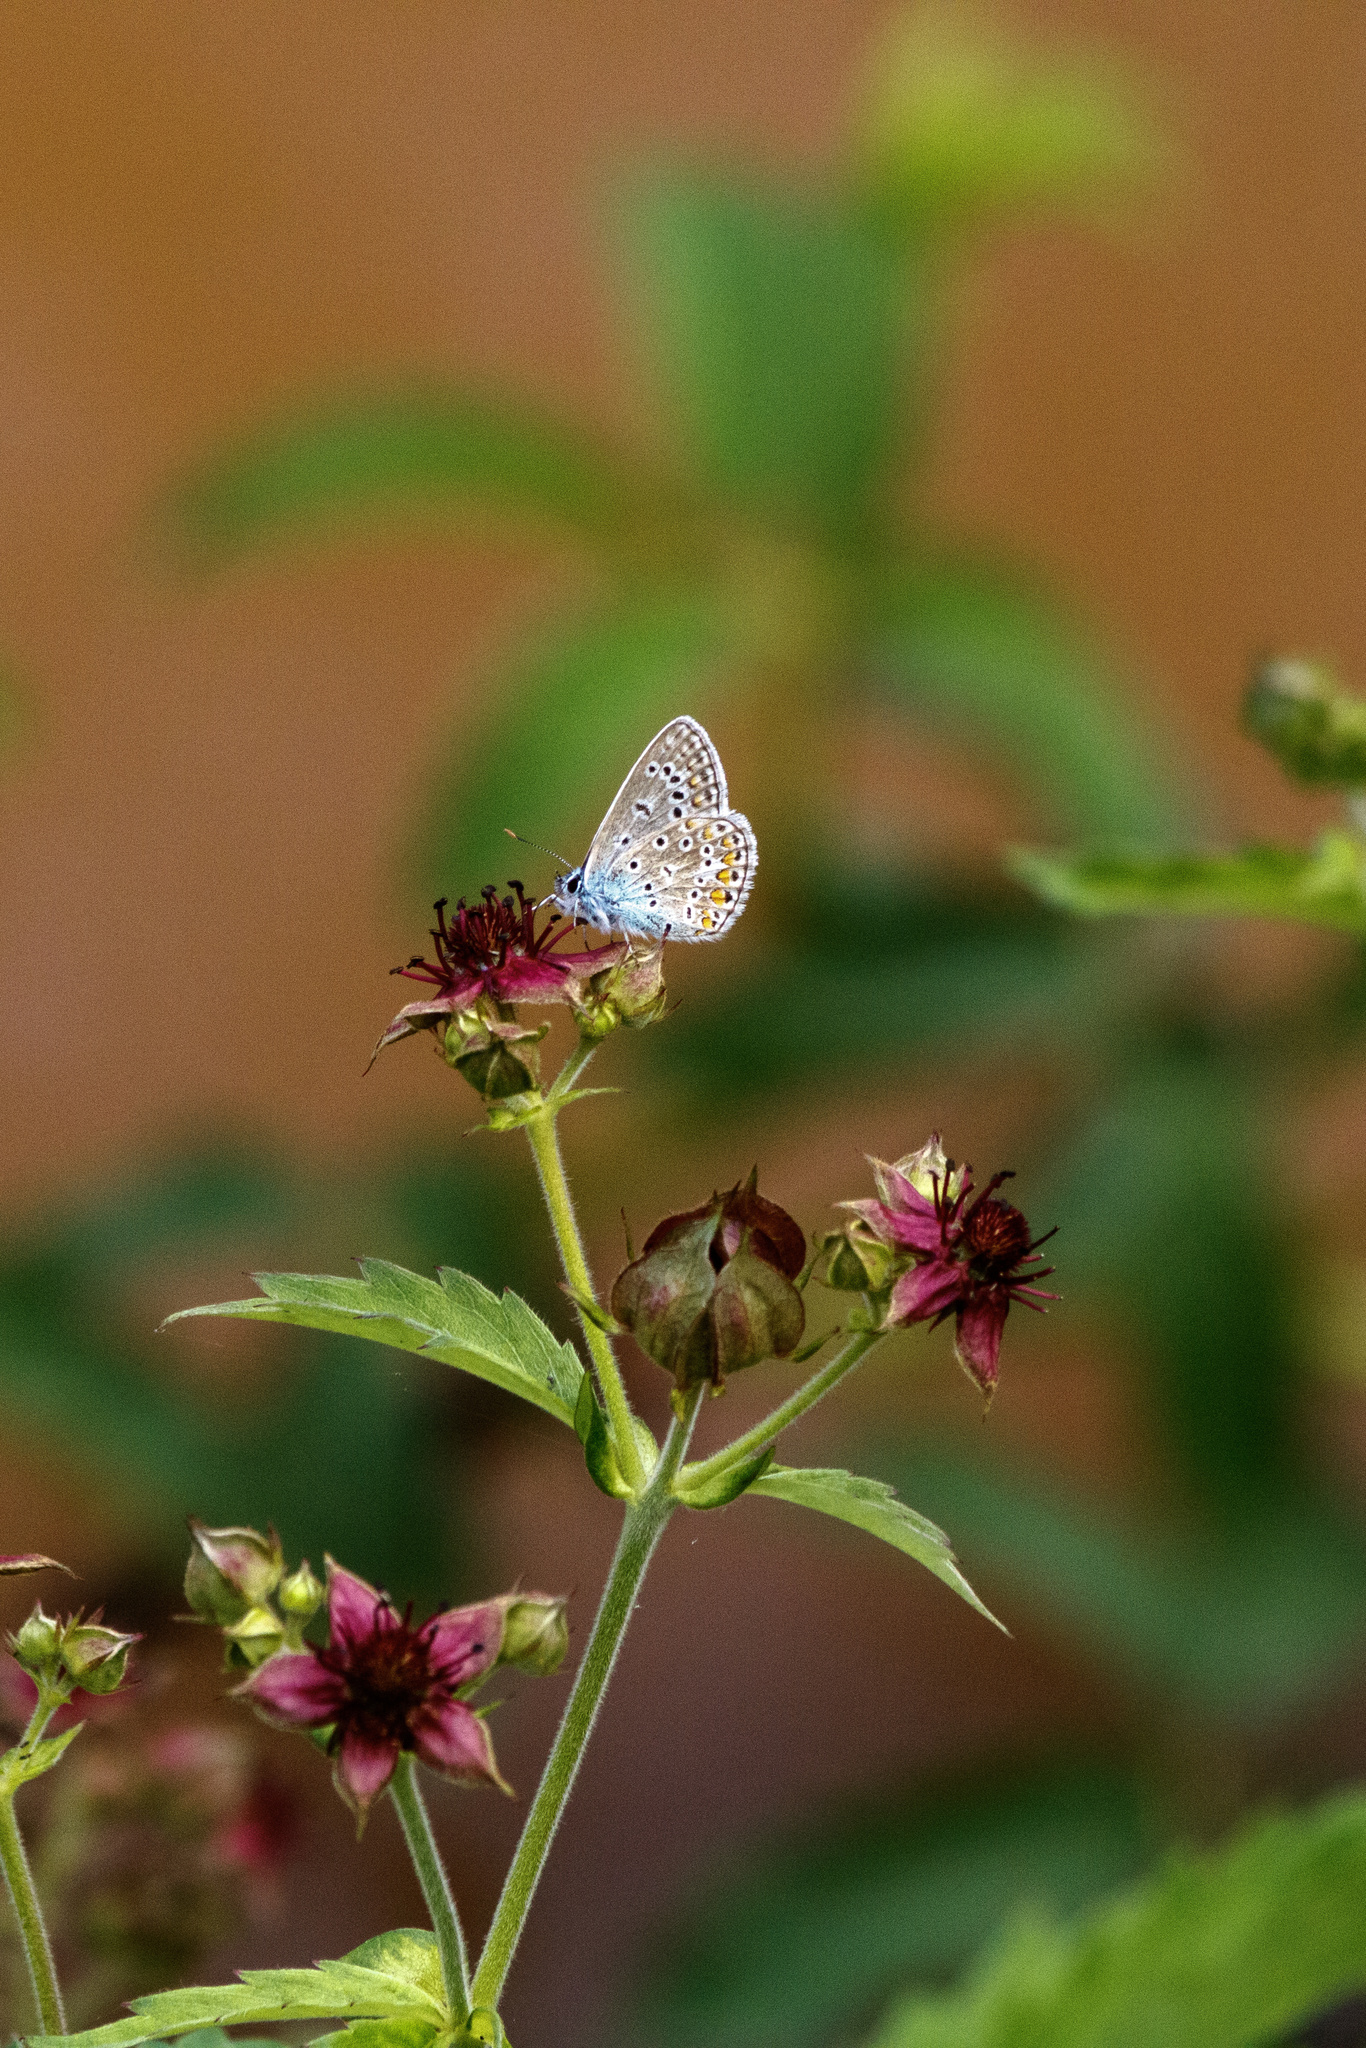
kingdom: Animalia
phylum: Arthropoda
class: Insecta
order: Lepidoptera
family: Lycaenidae
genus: Polyommatus
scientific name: Polyommatus icarus
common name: Common blue
